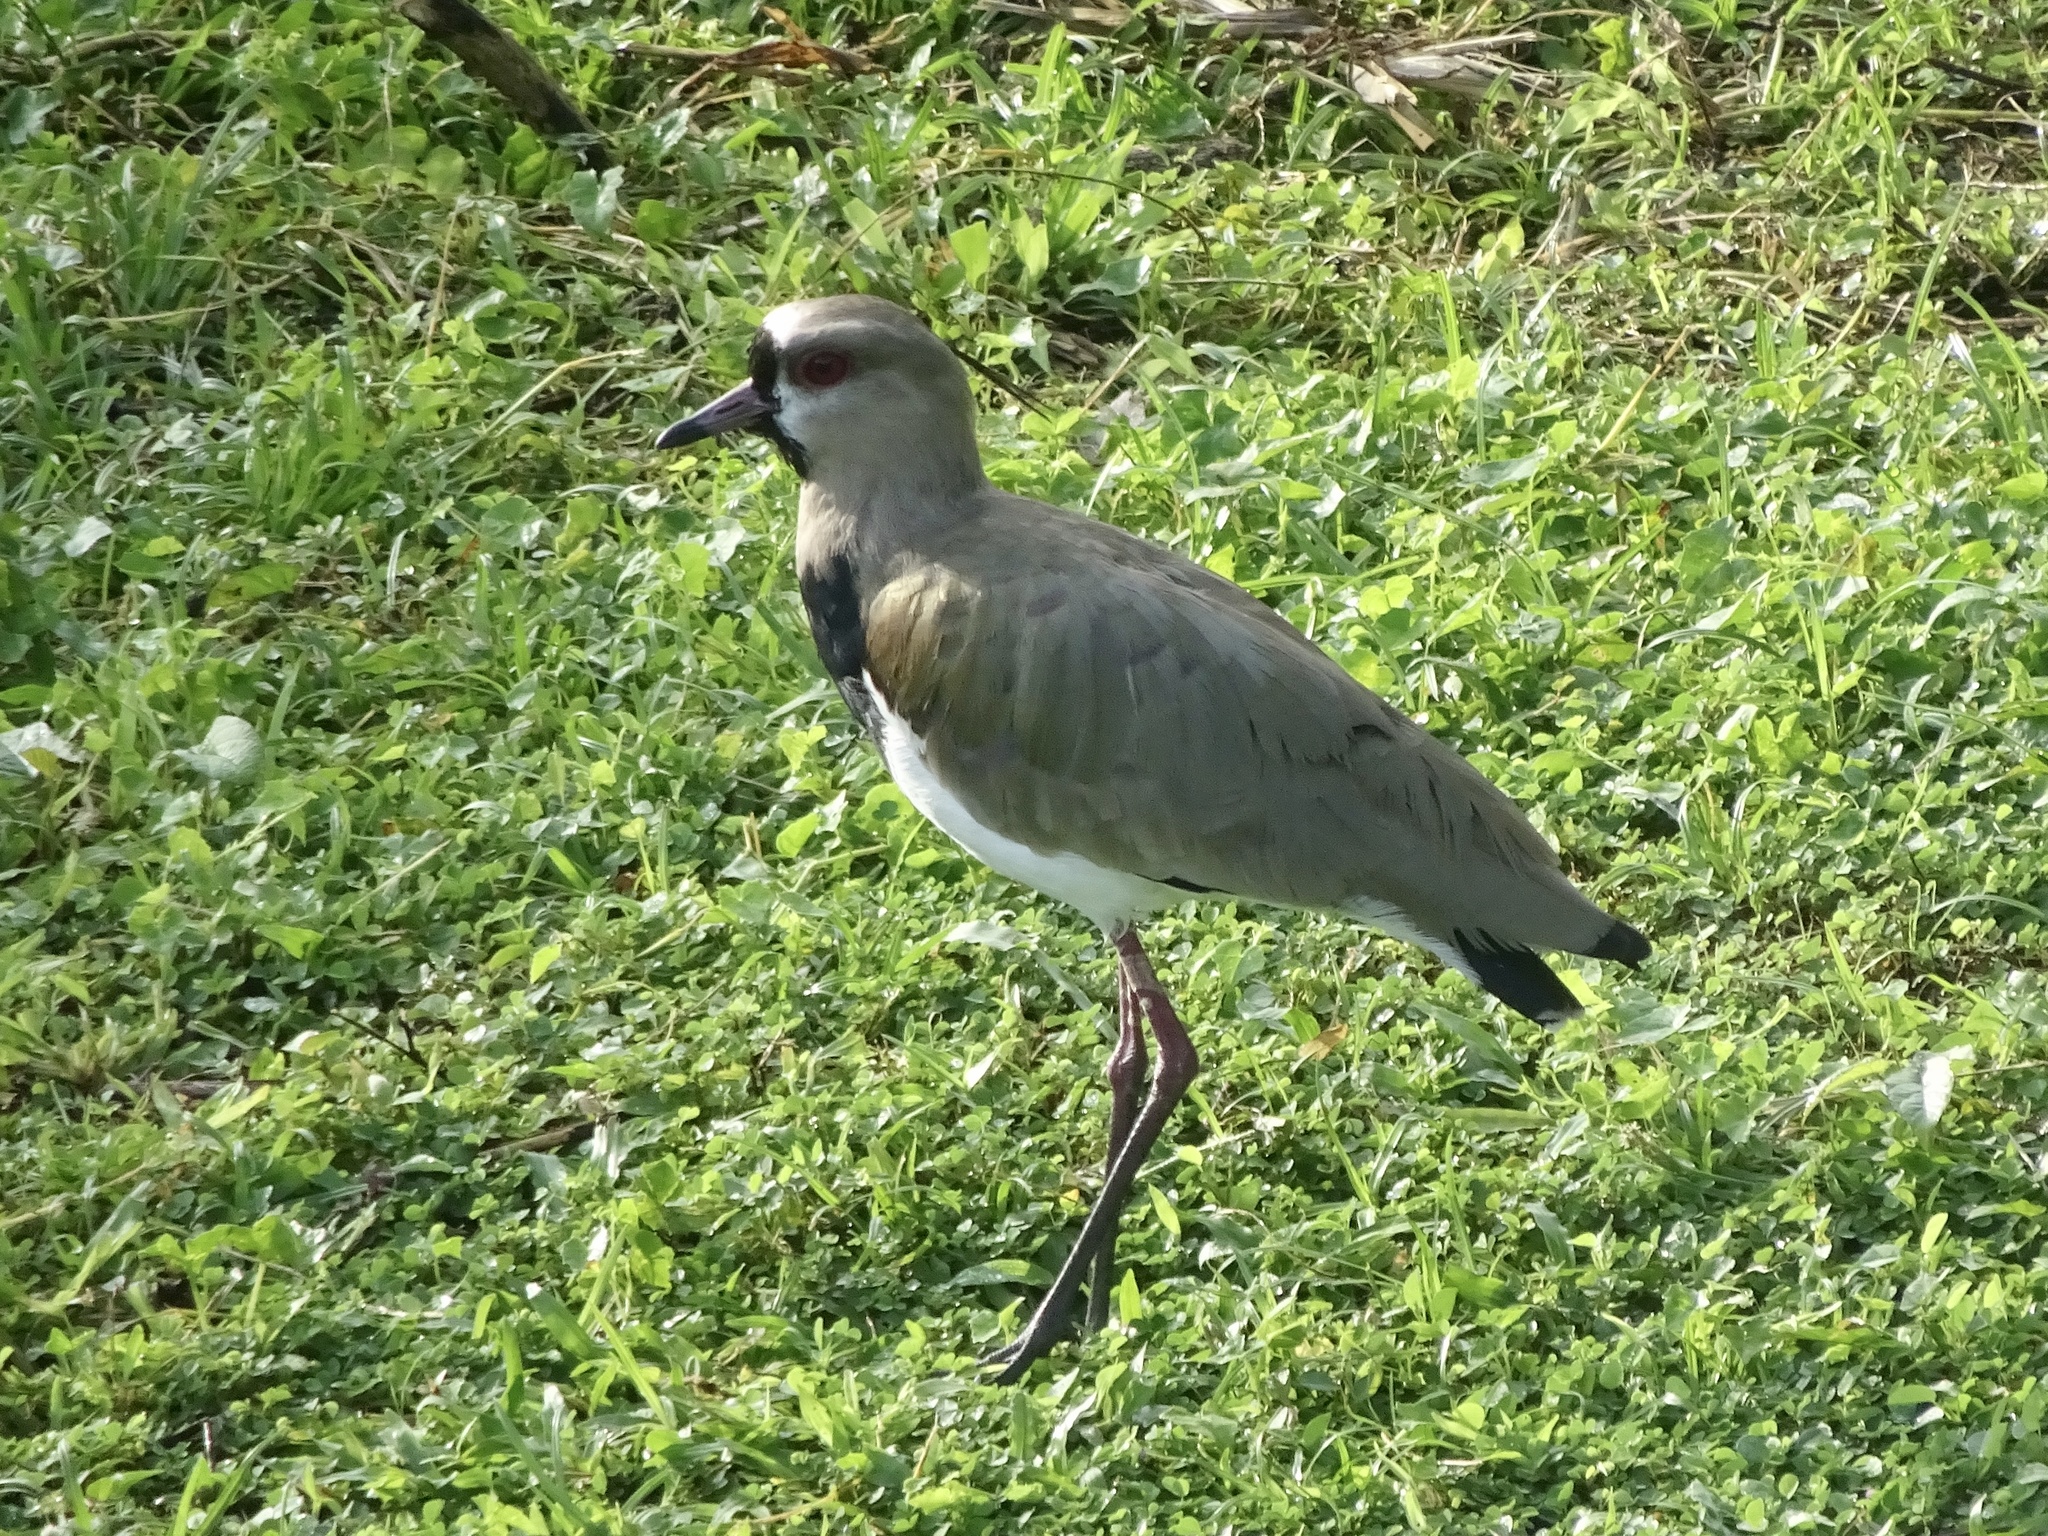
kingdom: Animalia
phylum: Chordata
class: Aves
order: Charadriiformes
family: Charadriidae
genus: Vanellus
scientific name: Vanellus chilensis
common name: Southern lapwing
